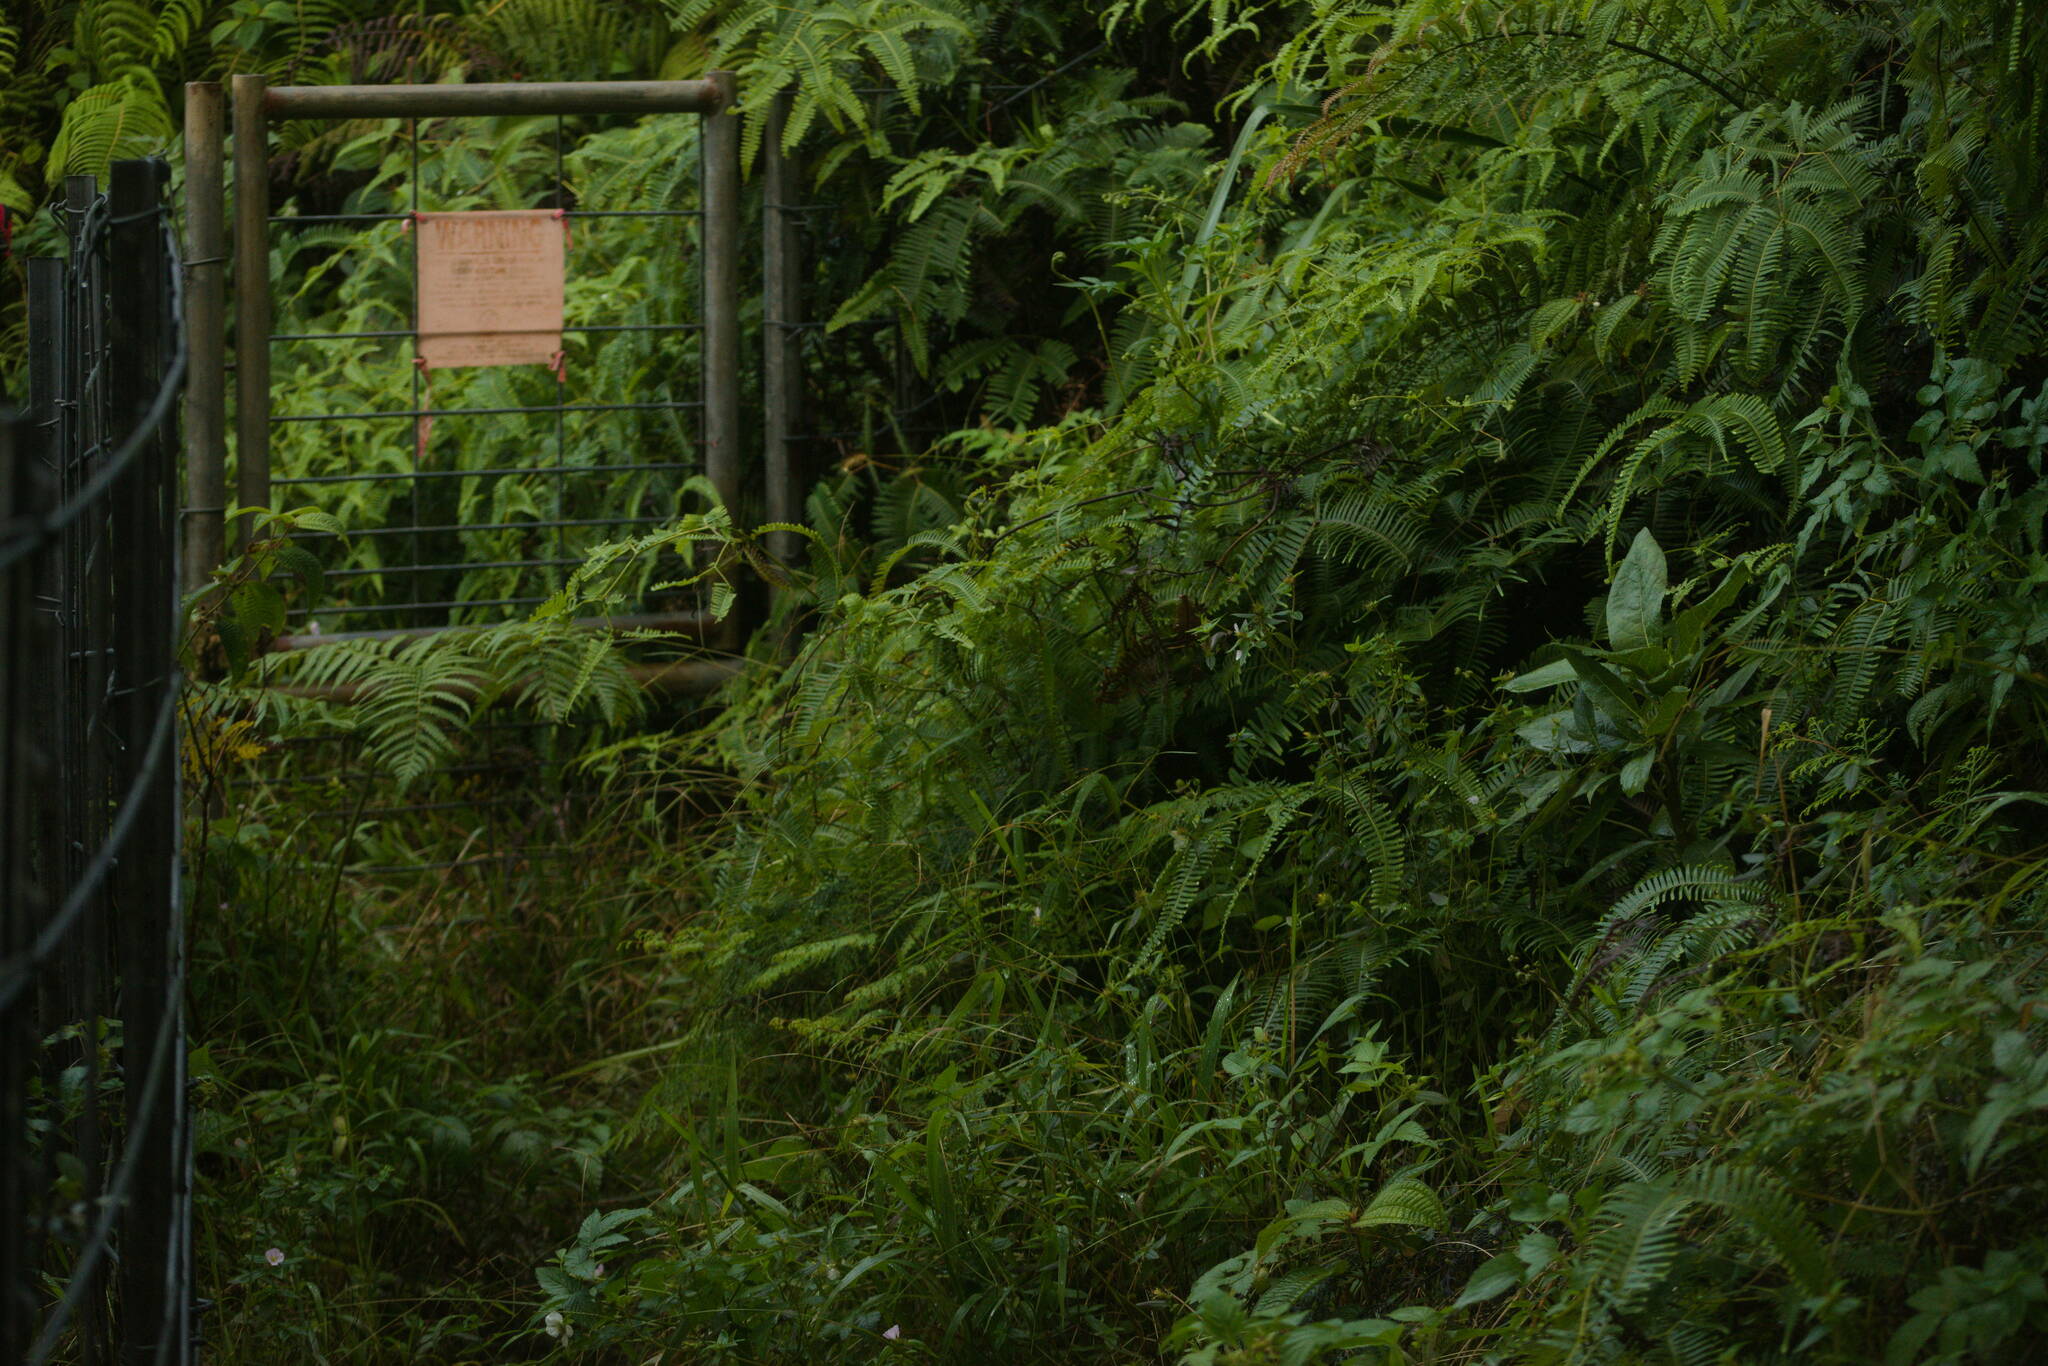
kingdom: Plantae
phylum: Tracheophyta
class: Polypodiopsida
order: Gleicheniales
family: Gleicheniaceae
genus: Dicranopteris
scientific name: Dicranopteris linearis
